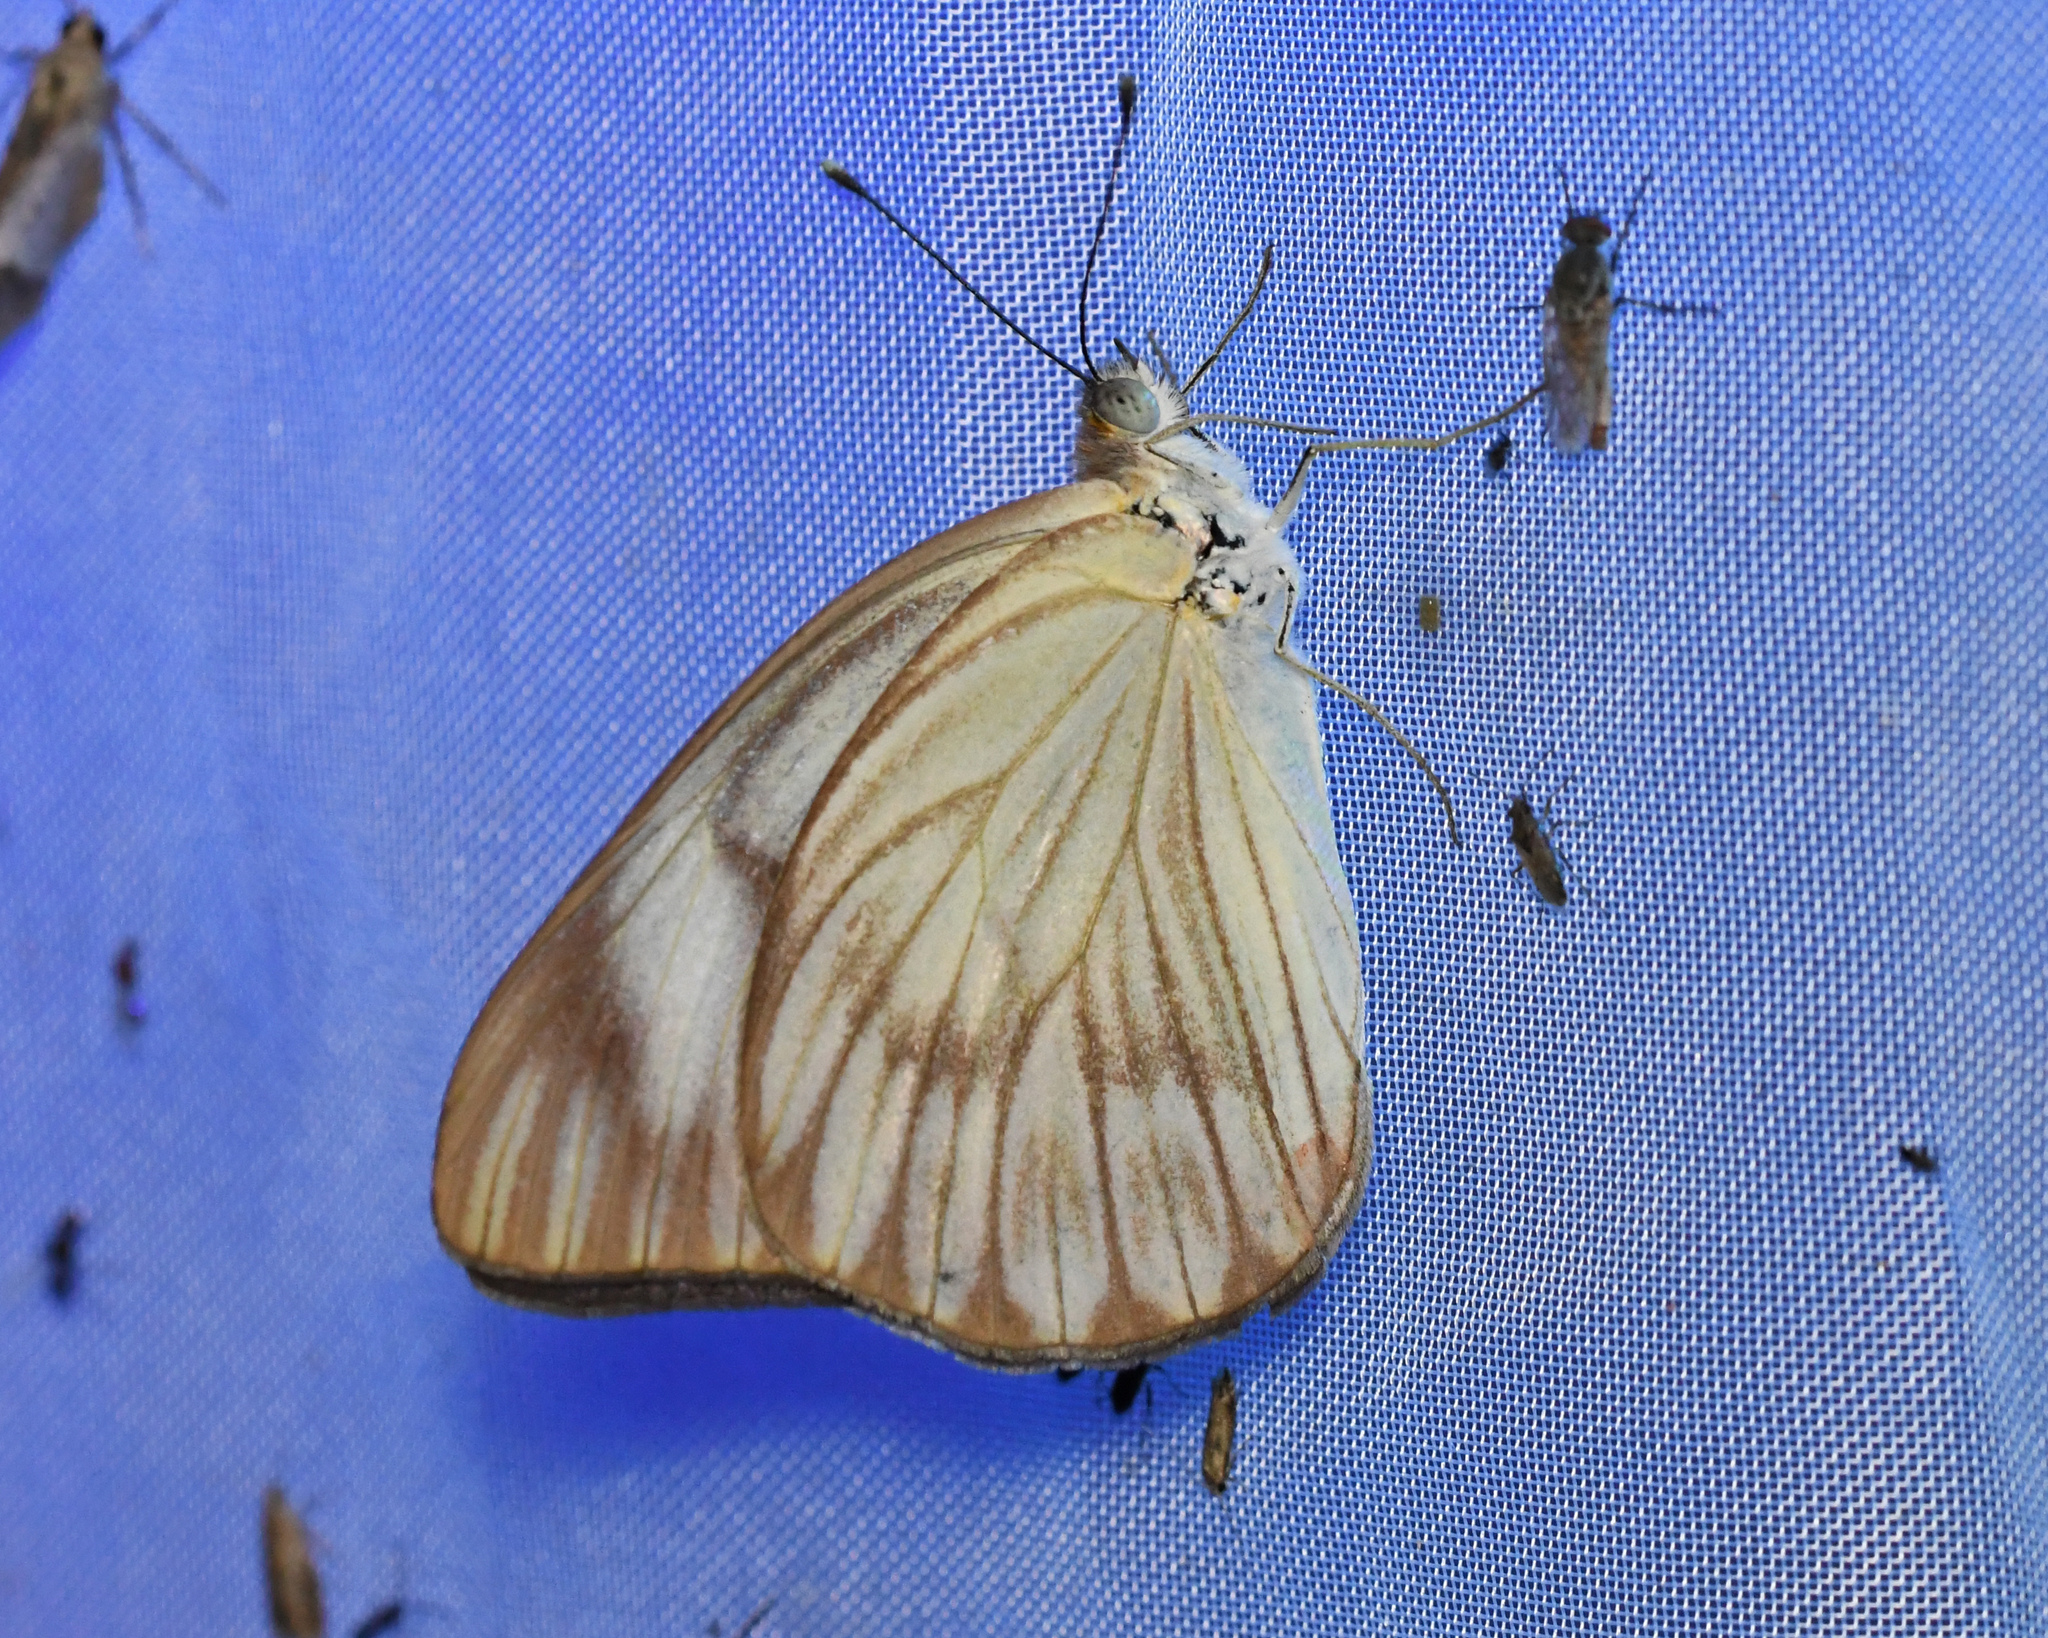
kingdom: Animalia
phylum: Arthropoda
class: Insecta
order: Lepidoptera
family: Pieridae
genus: Ascia
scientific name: Ascia monuste
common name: Great southern white
